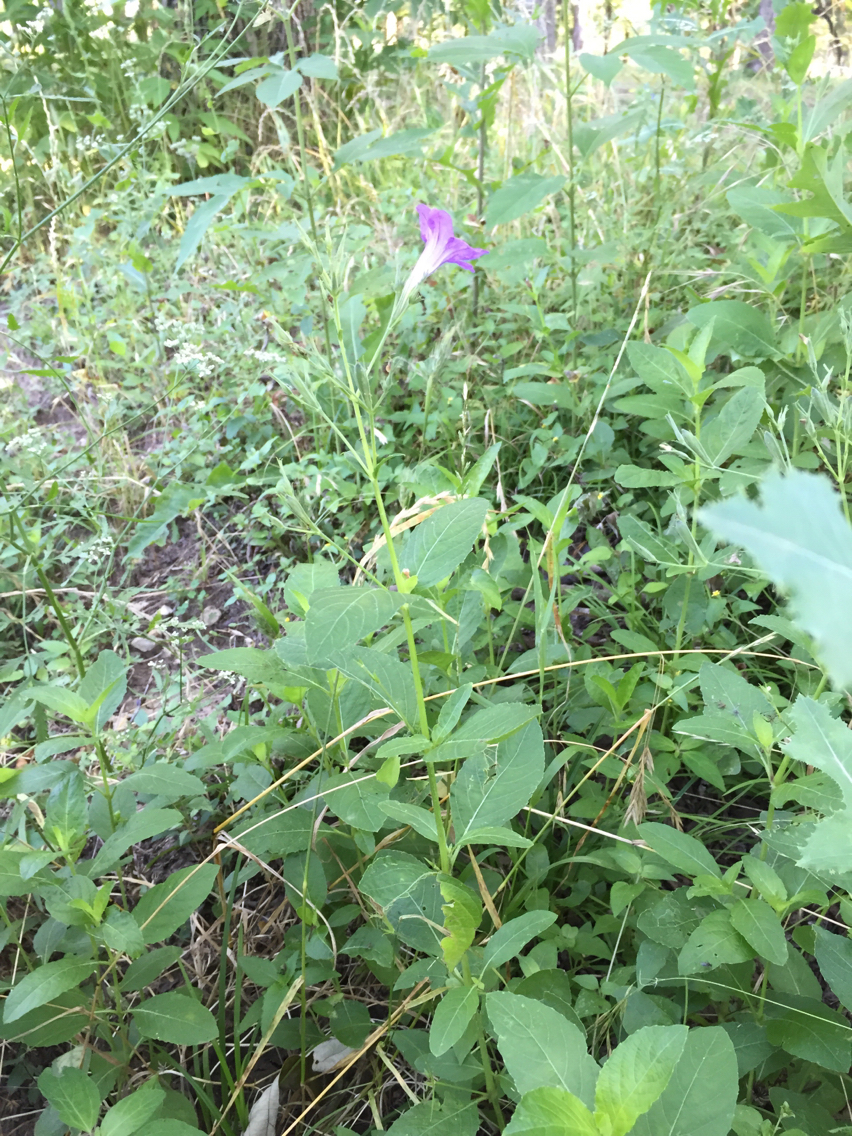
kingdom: Plantae
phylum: Tracheophyta
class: Magnoliopsida
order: Lamiales
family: Acanthaceae
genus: Ruellia
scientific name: Ruellia ciliatiflora
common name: Hairyflower wild petunia
